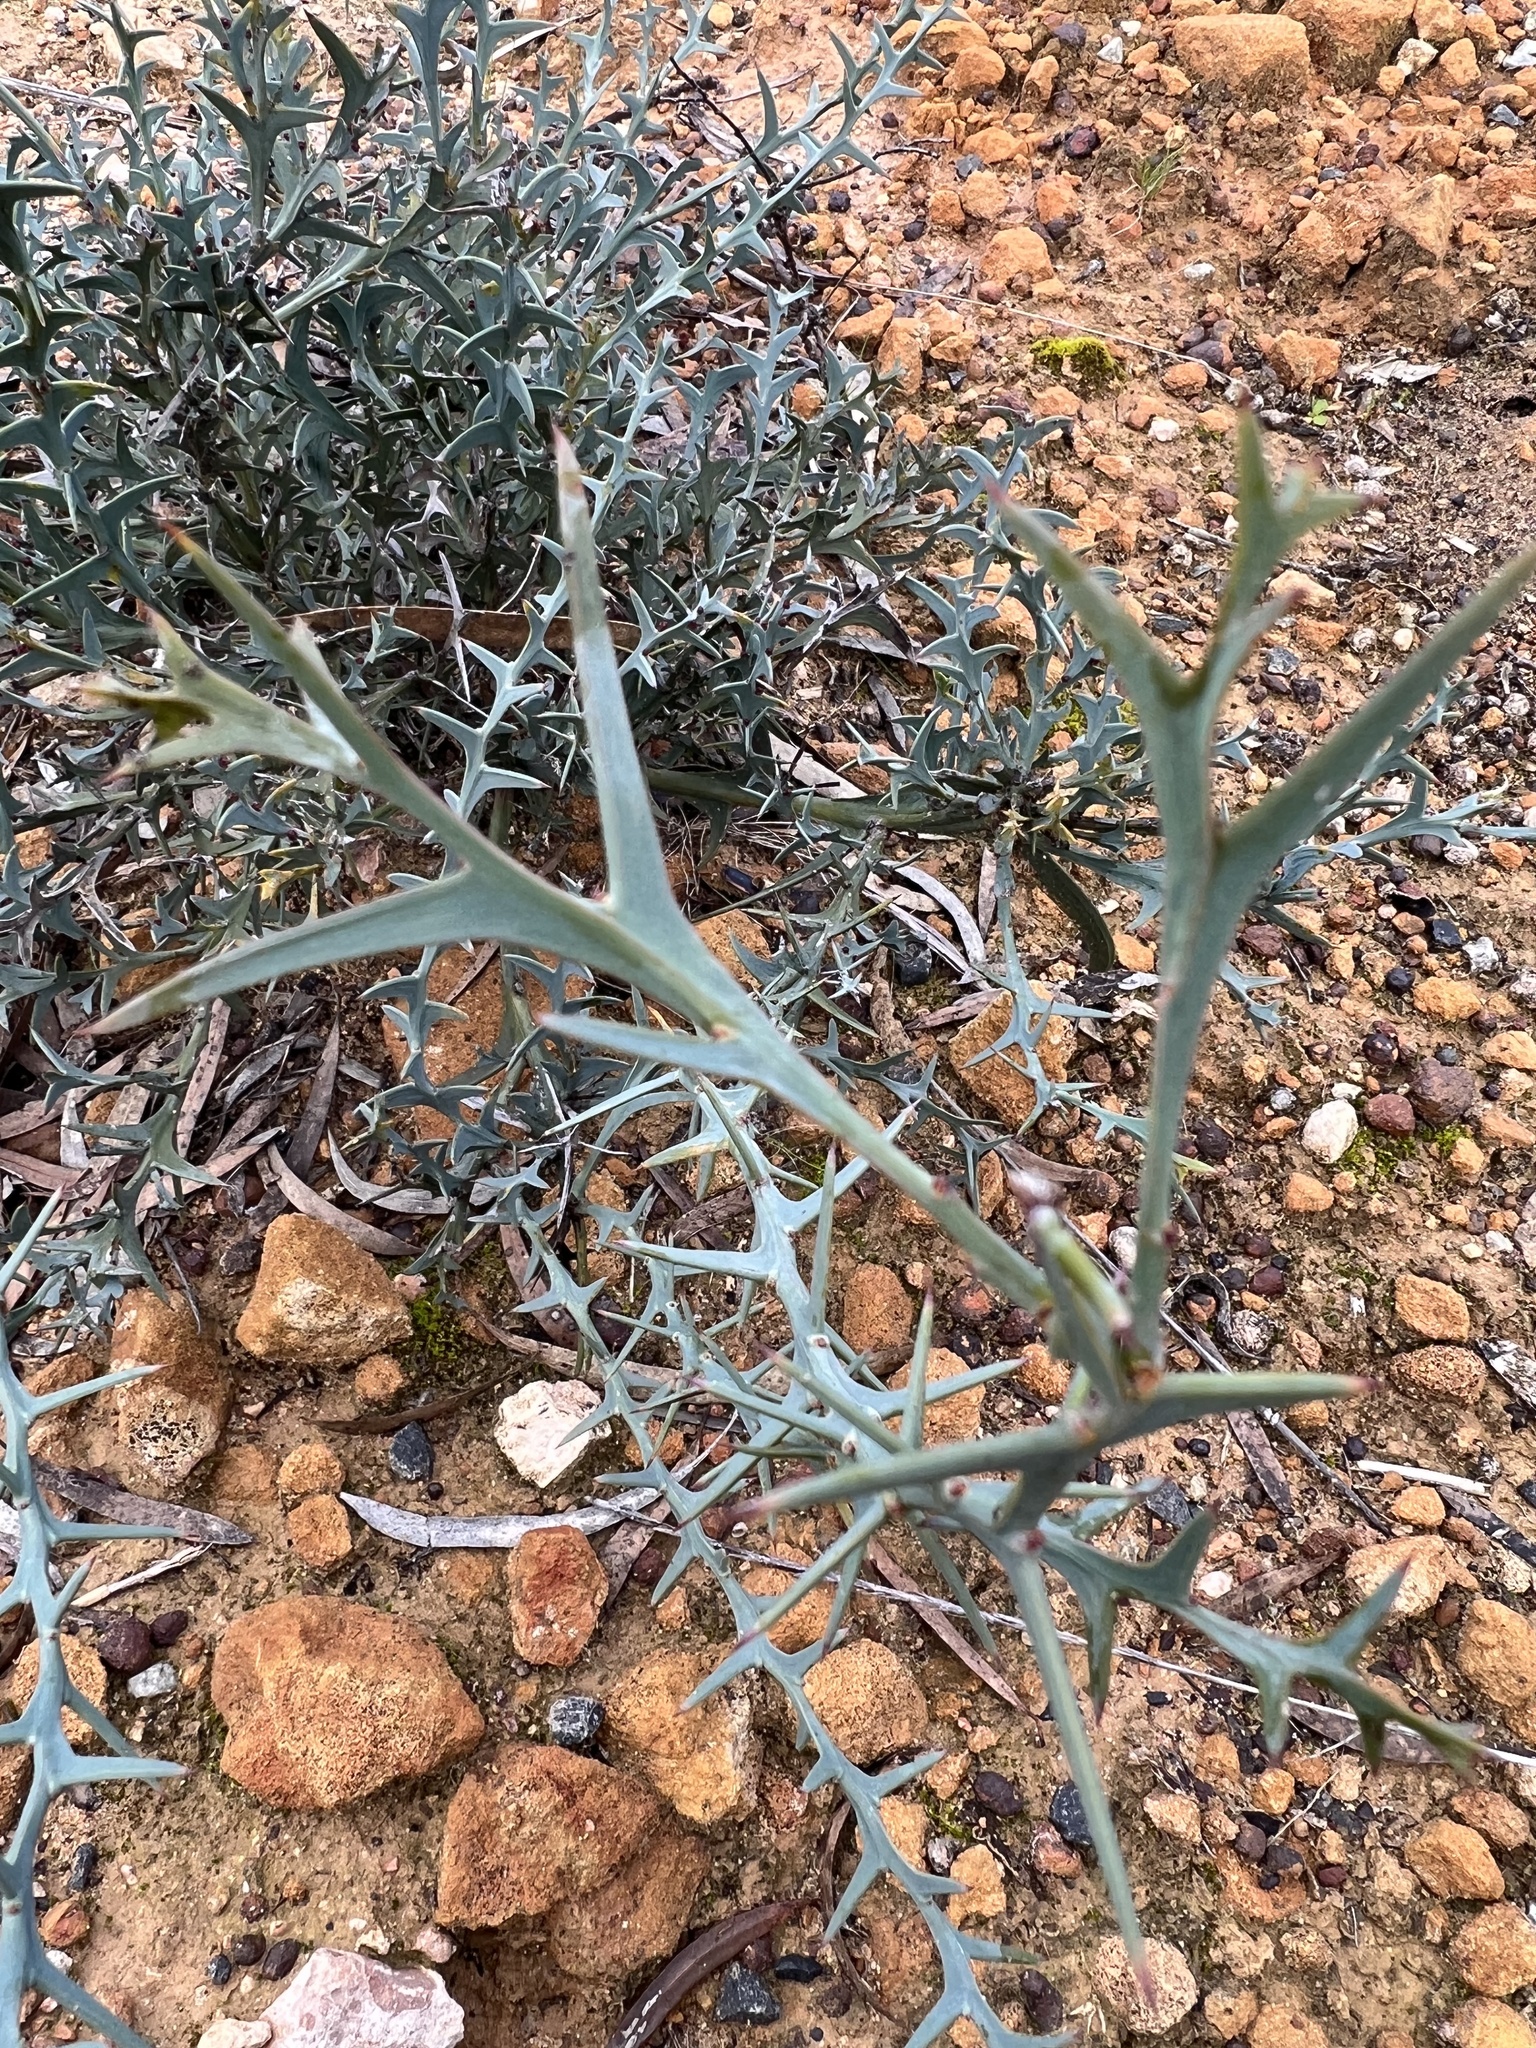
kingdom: Plantae
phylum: Tracheophyta
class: Magnoliopsida
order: Fabales
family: Fabaceae
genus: Daviesia
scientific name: Daviesia pectinata
